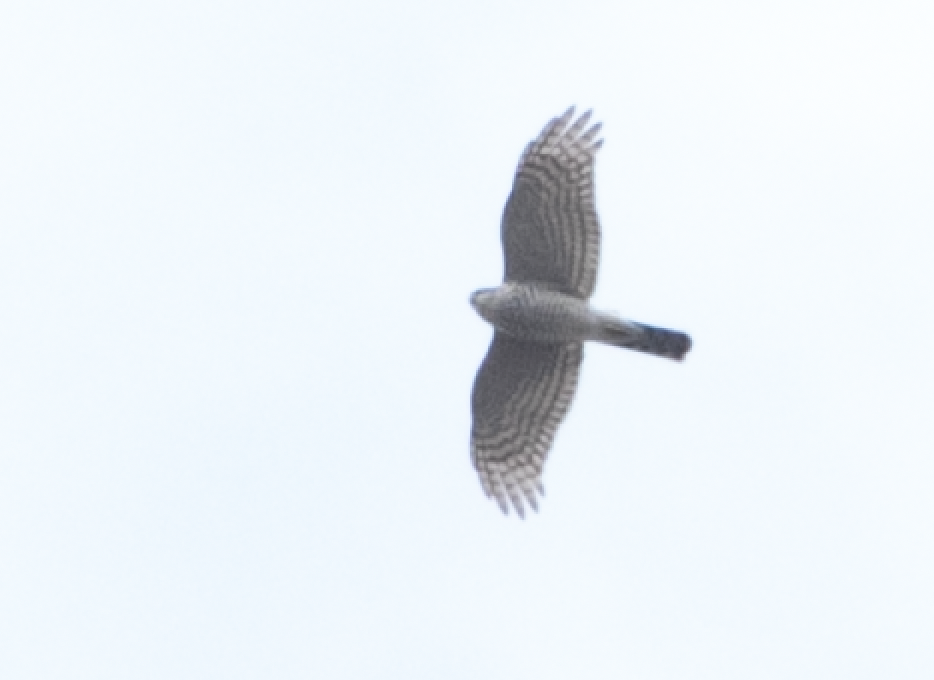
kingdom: Animalia
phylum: Chordata
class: Aves
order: Accipitriformes
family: Accipitridae
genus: Accipiter
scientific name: Accipiter nisus
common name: Eurasian sparrowhawk
